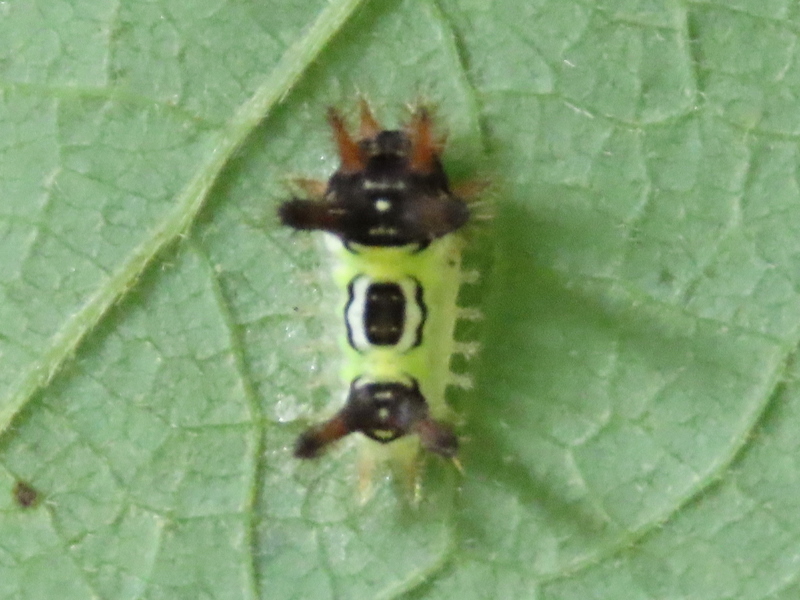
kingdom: Animalia
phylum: Arthropoda
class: Insecta
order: Lepidoptera
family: Limacodidae
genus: Acharia
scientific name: Acharia stimulea
